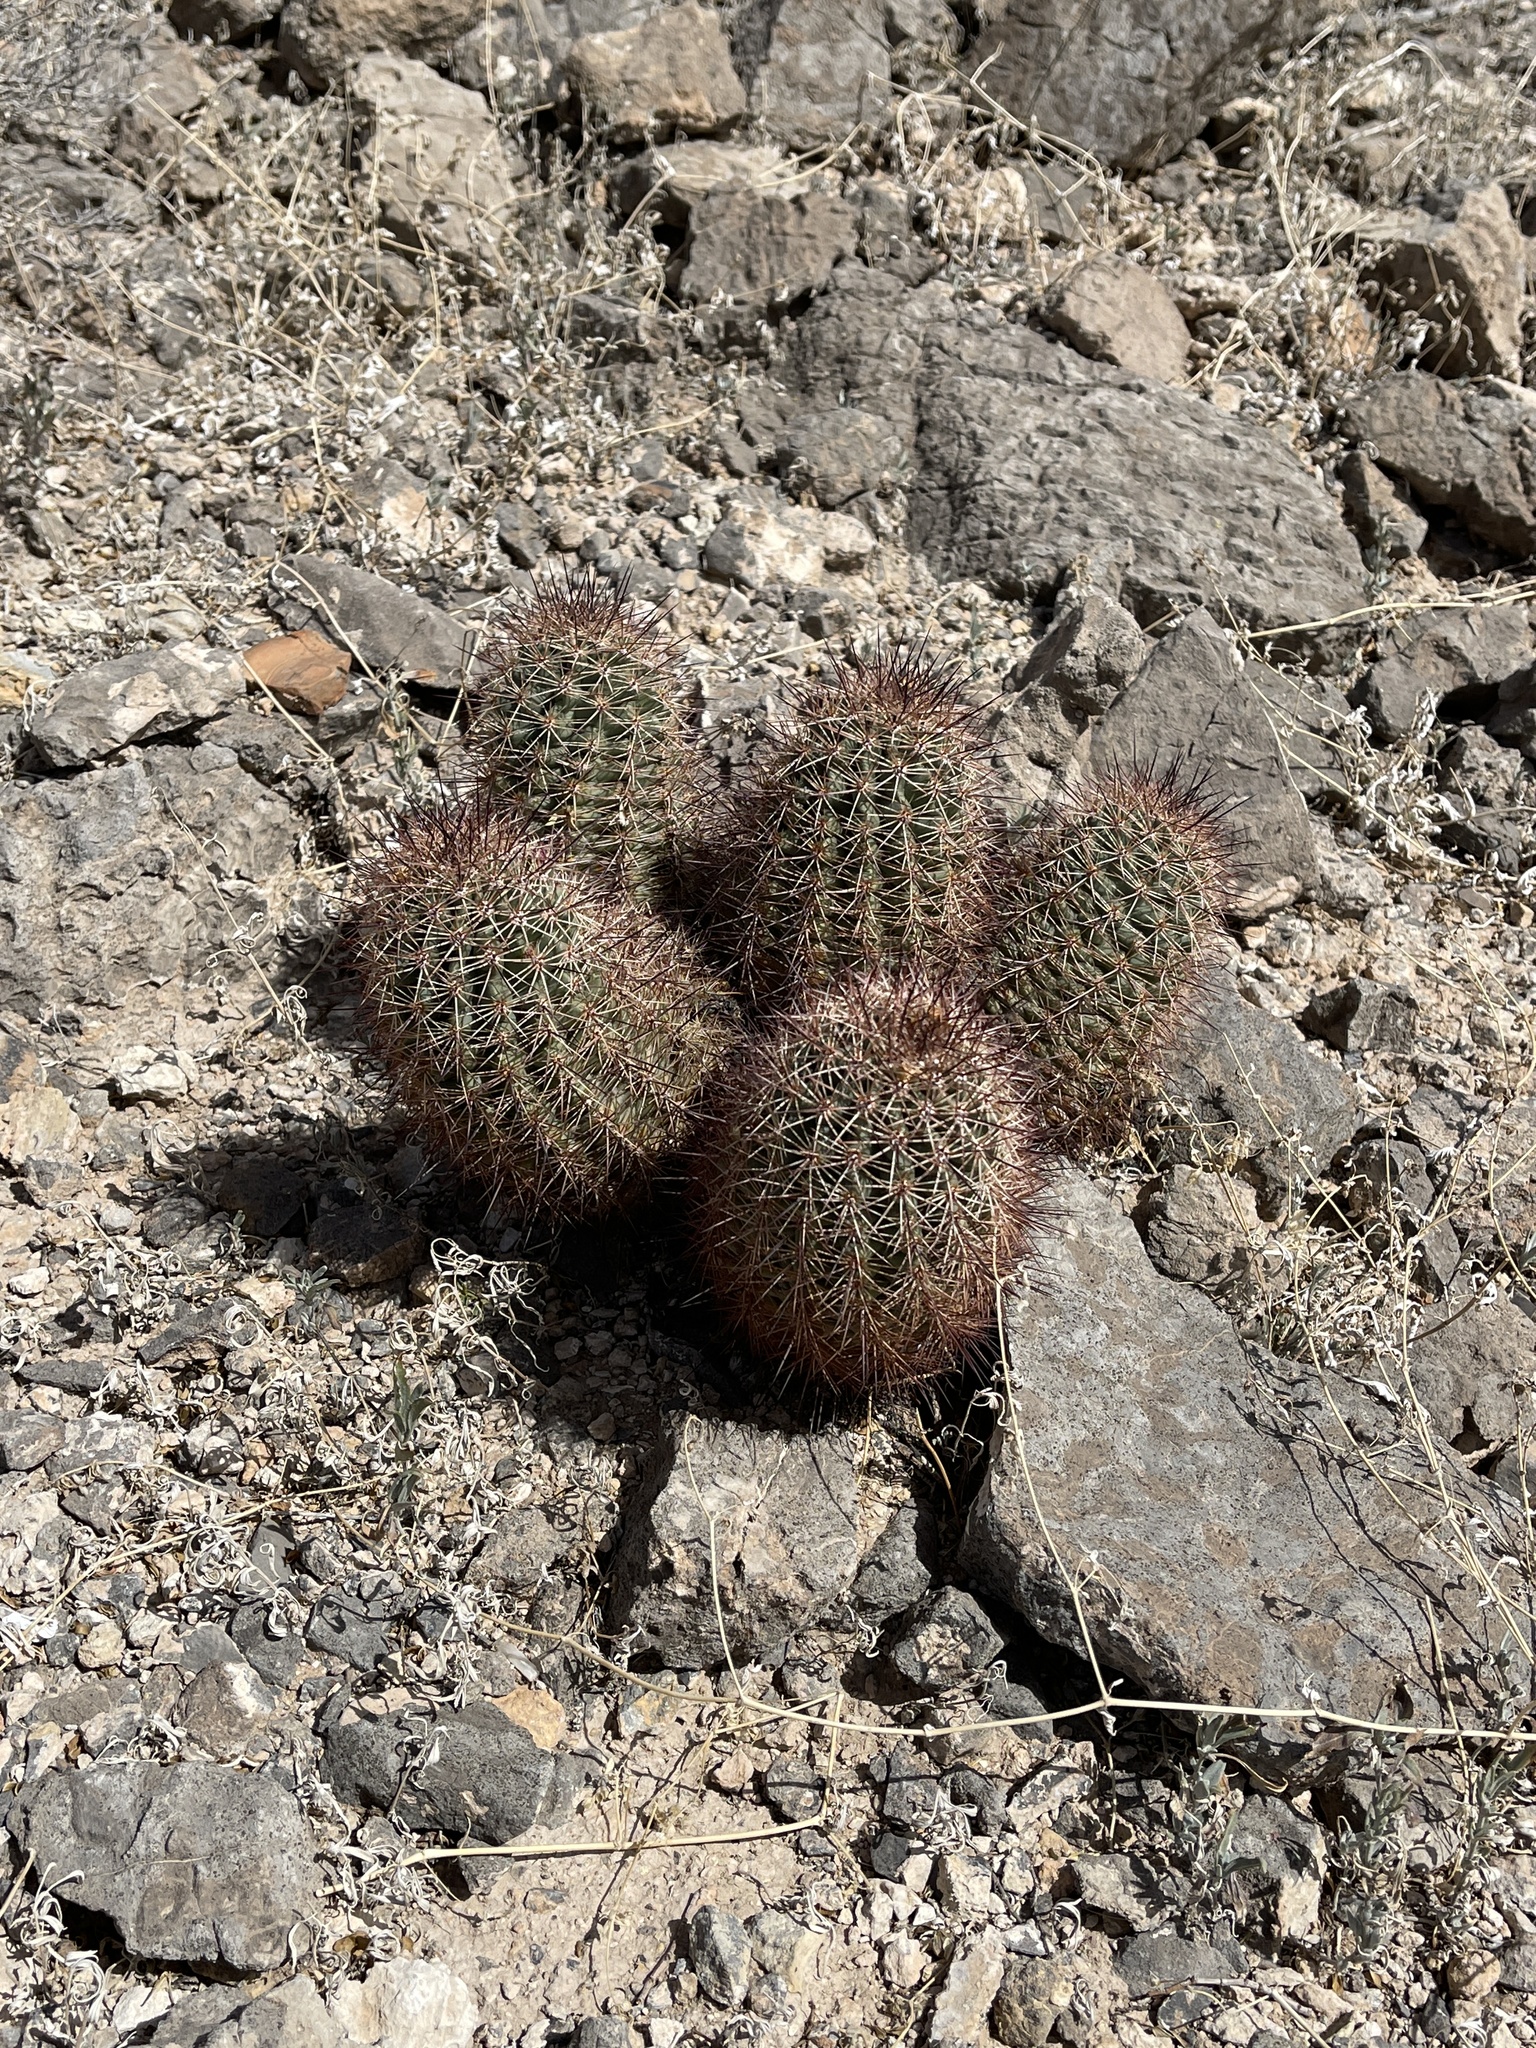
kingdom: Plantae
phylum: Tracheophyta
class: Magnoliopsida
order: Caryophyllales
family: Cactaceae
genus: Echinocereus
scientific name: Echinocereus coccineus
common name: Scarlet hedgehog cactus
